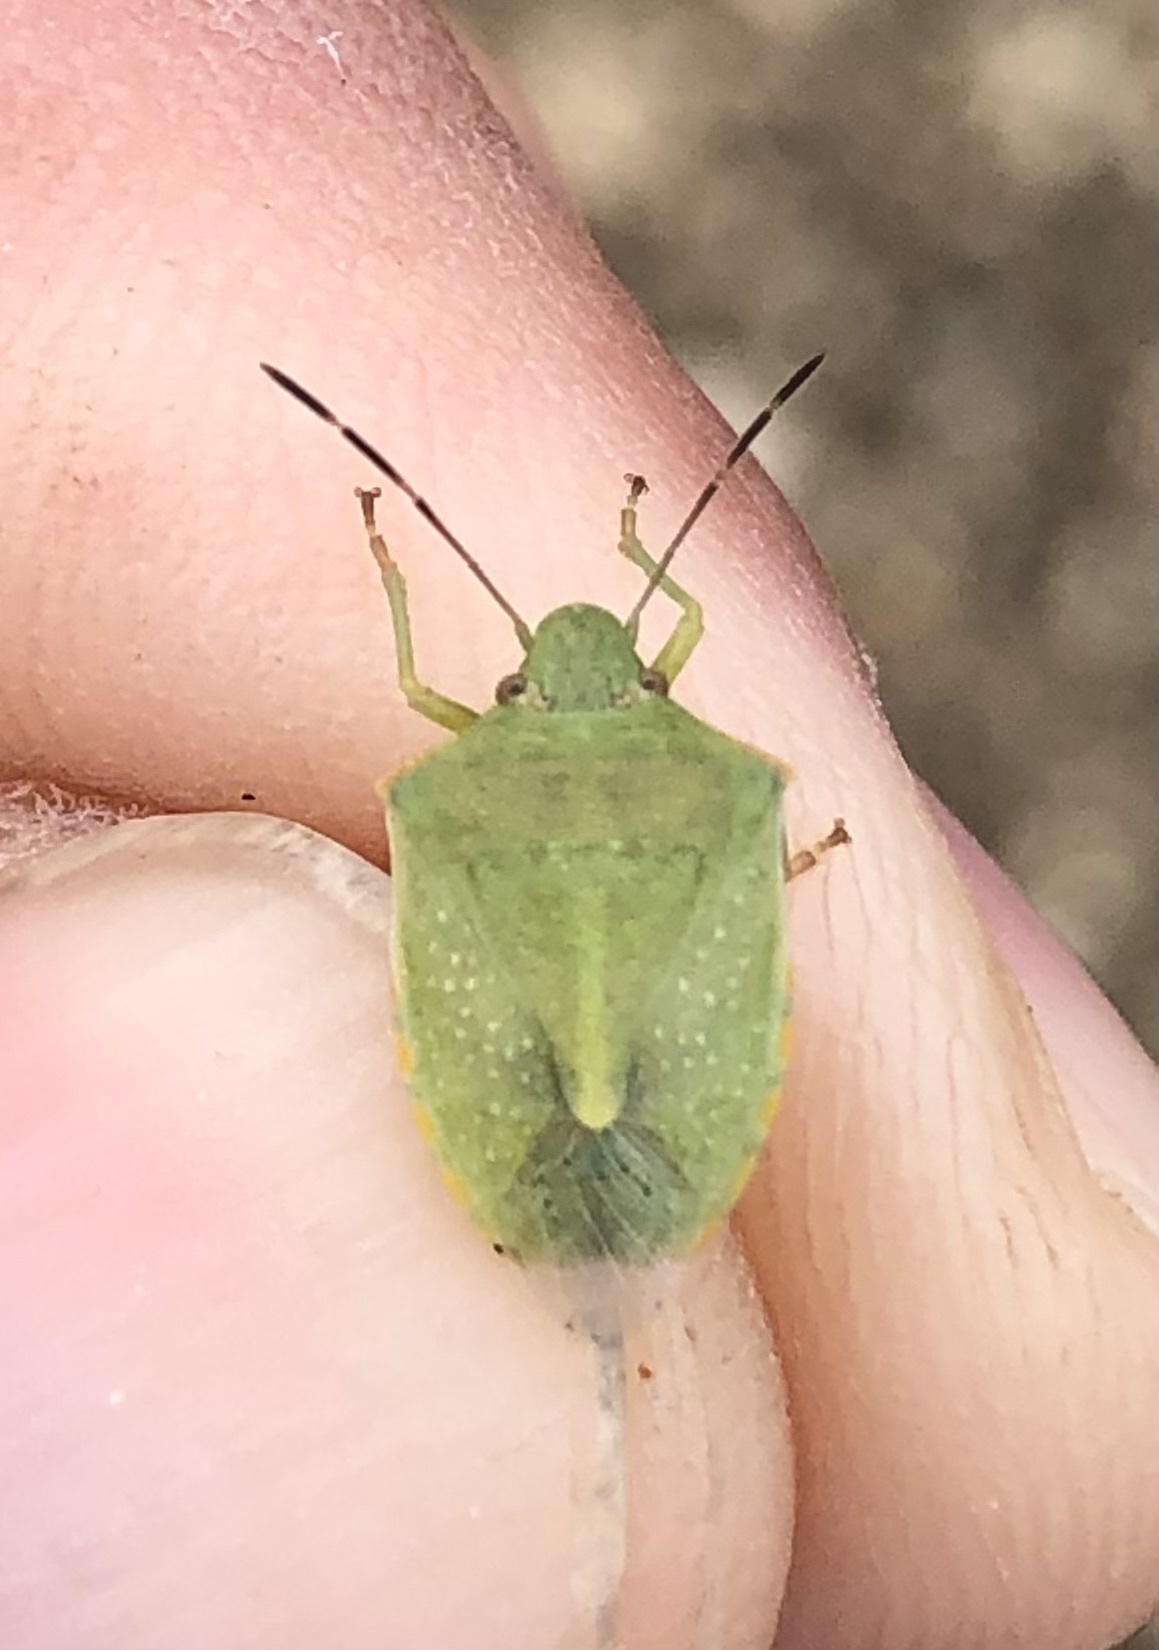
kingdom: Animalia
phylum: Arthropoda
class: Insecta
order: Hemiptera
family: Pentatomidae
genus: Thyanta
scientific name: Thyanta accerra
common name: Stink bug
